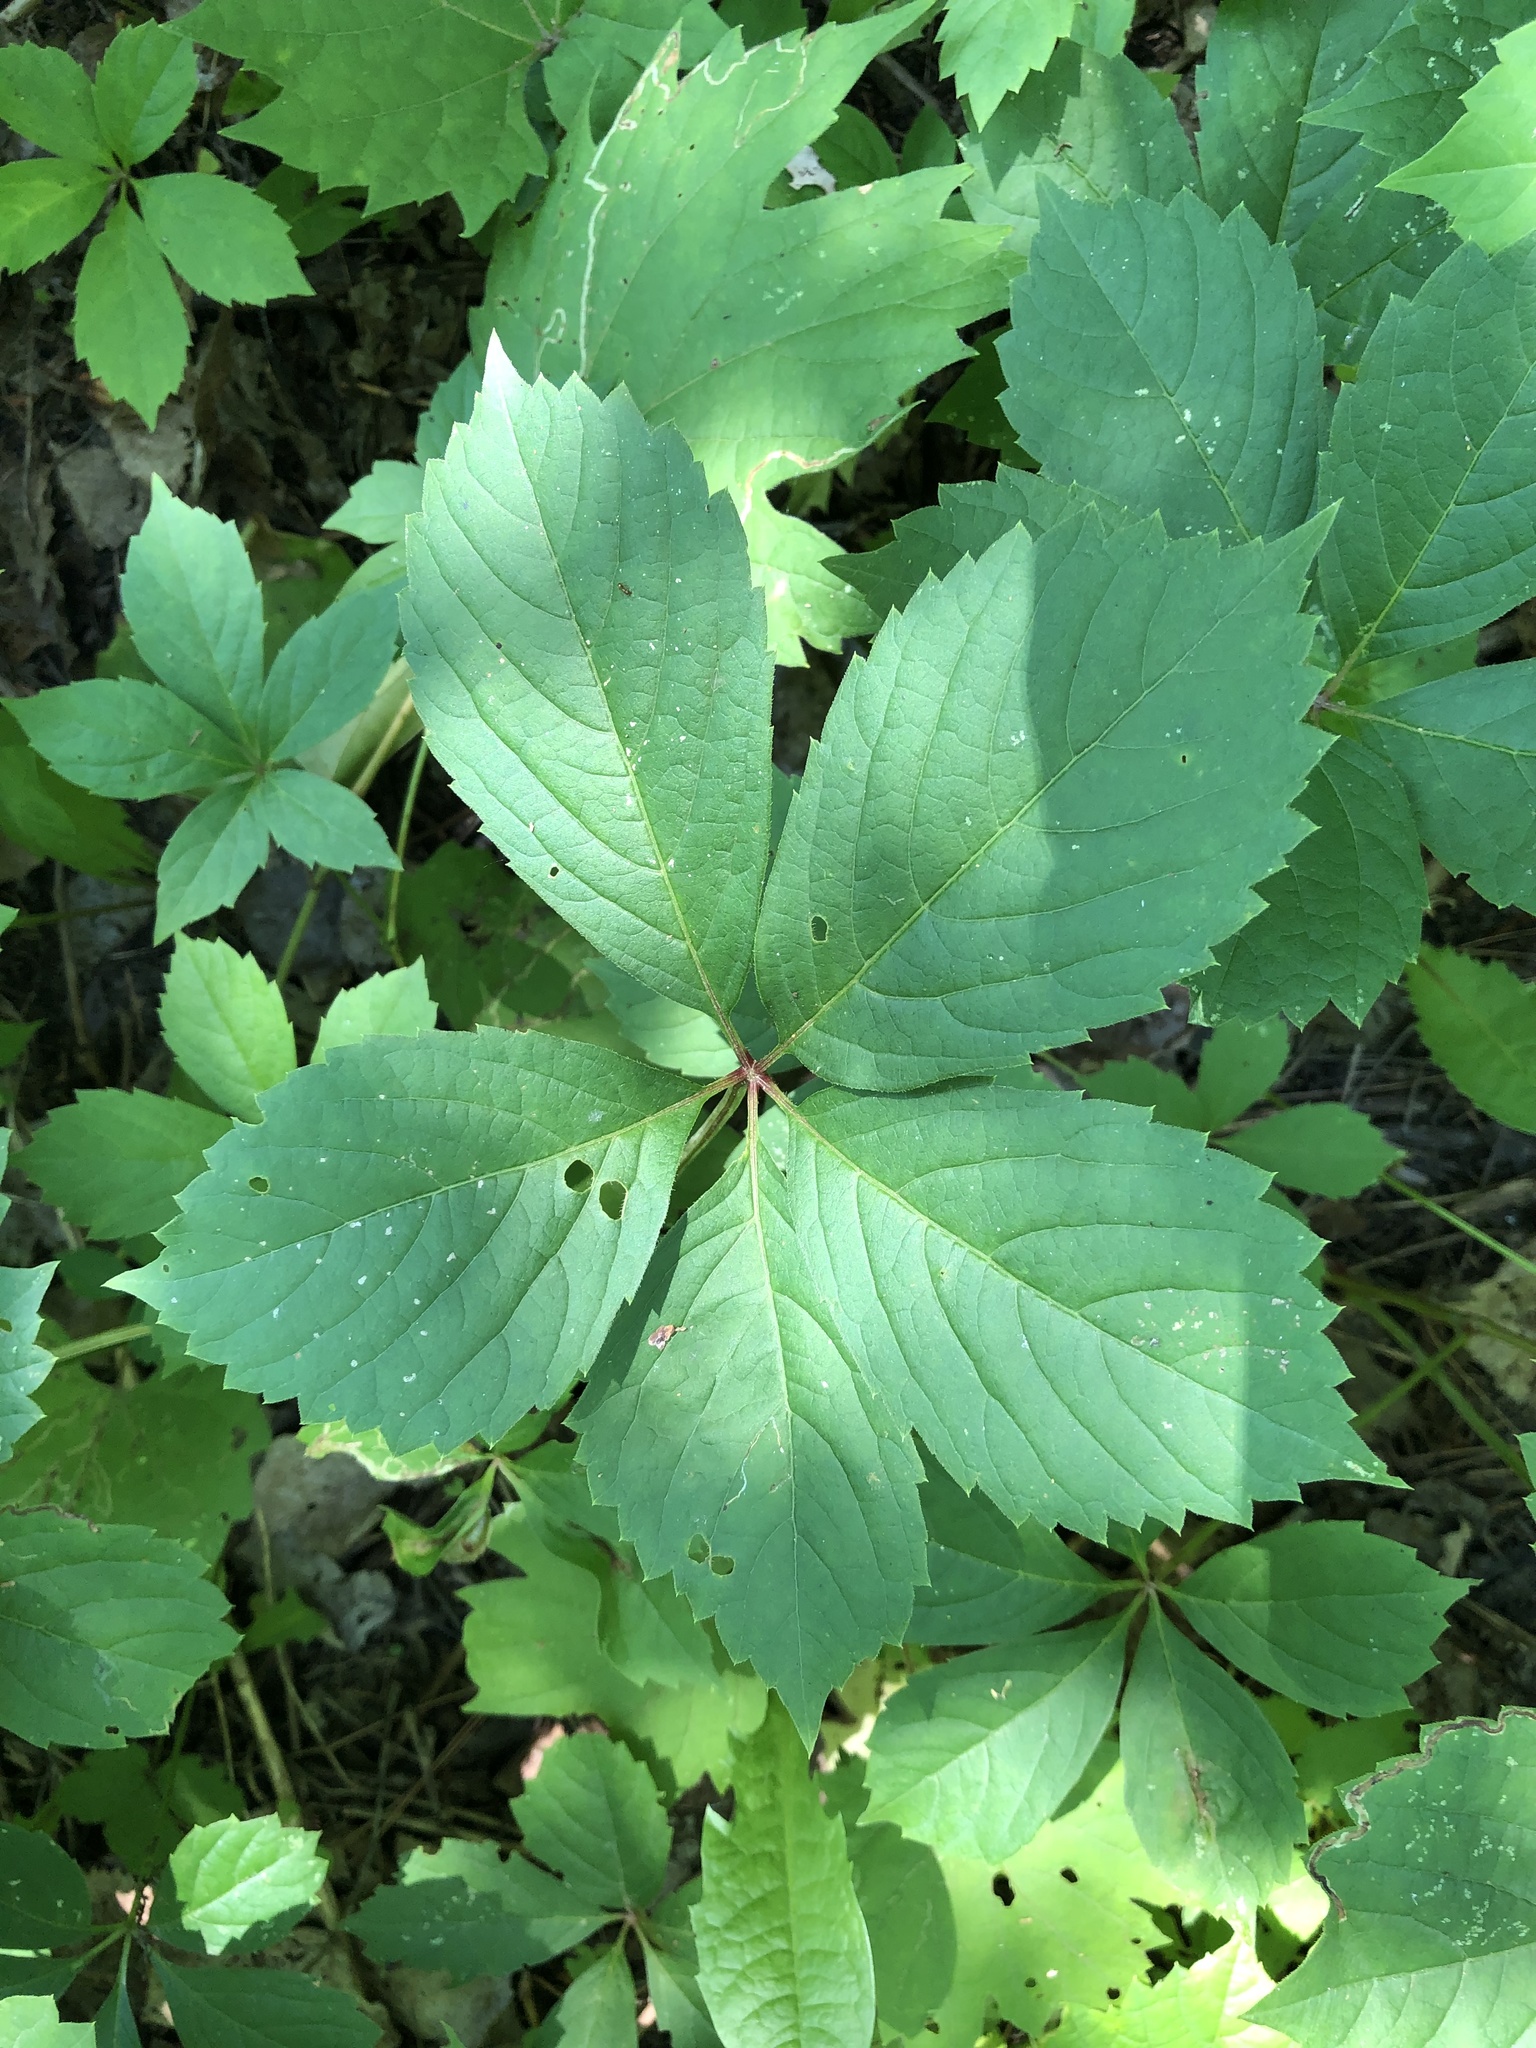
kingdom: Plantae
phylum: Tracheophyta
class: Magnoliopsida
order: Vitales
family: Vitaceae
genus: Parthenocissus
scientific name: Parthenocissus quinquefolia
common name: Virginia-creeper
